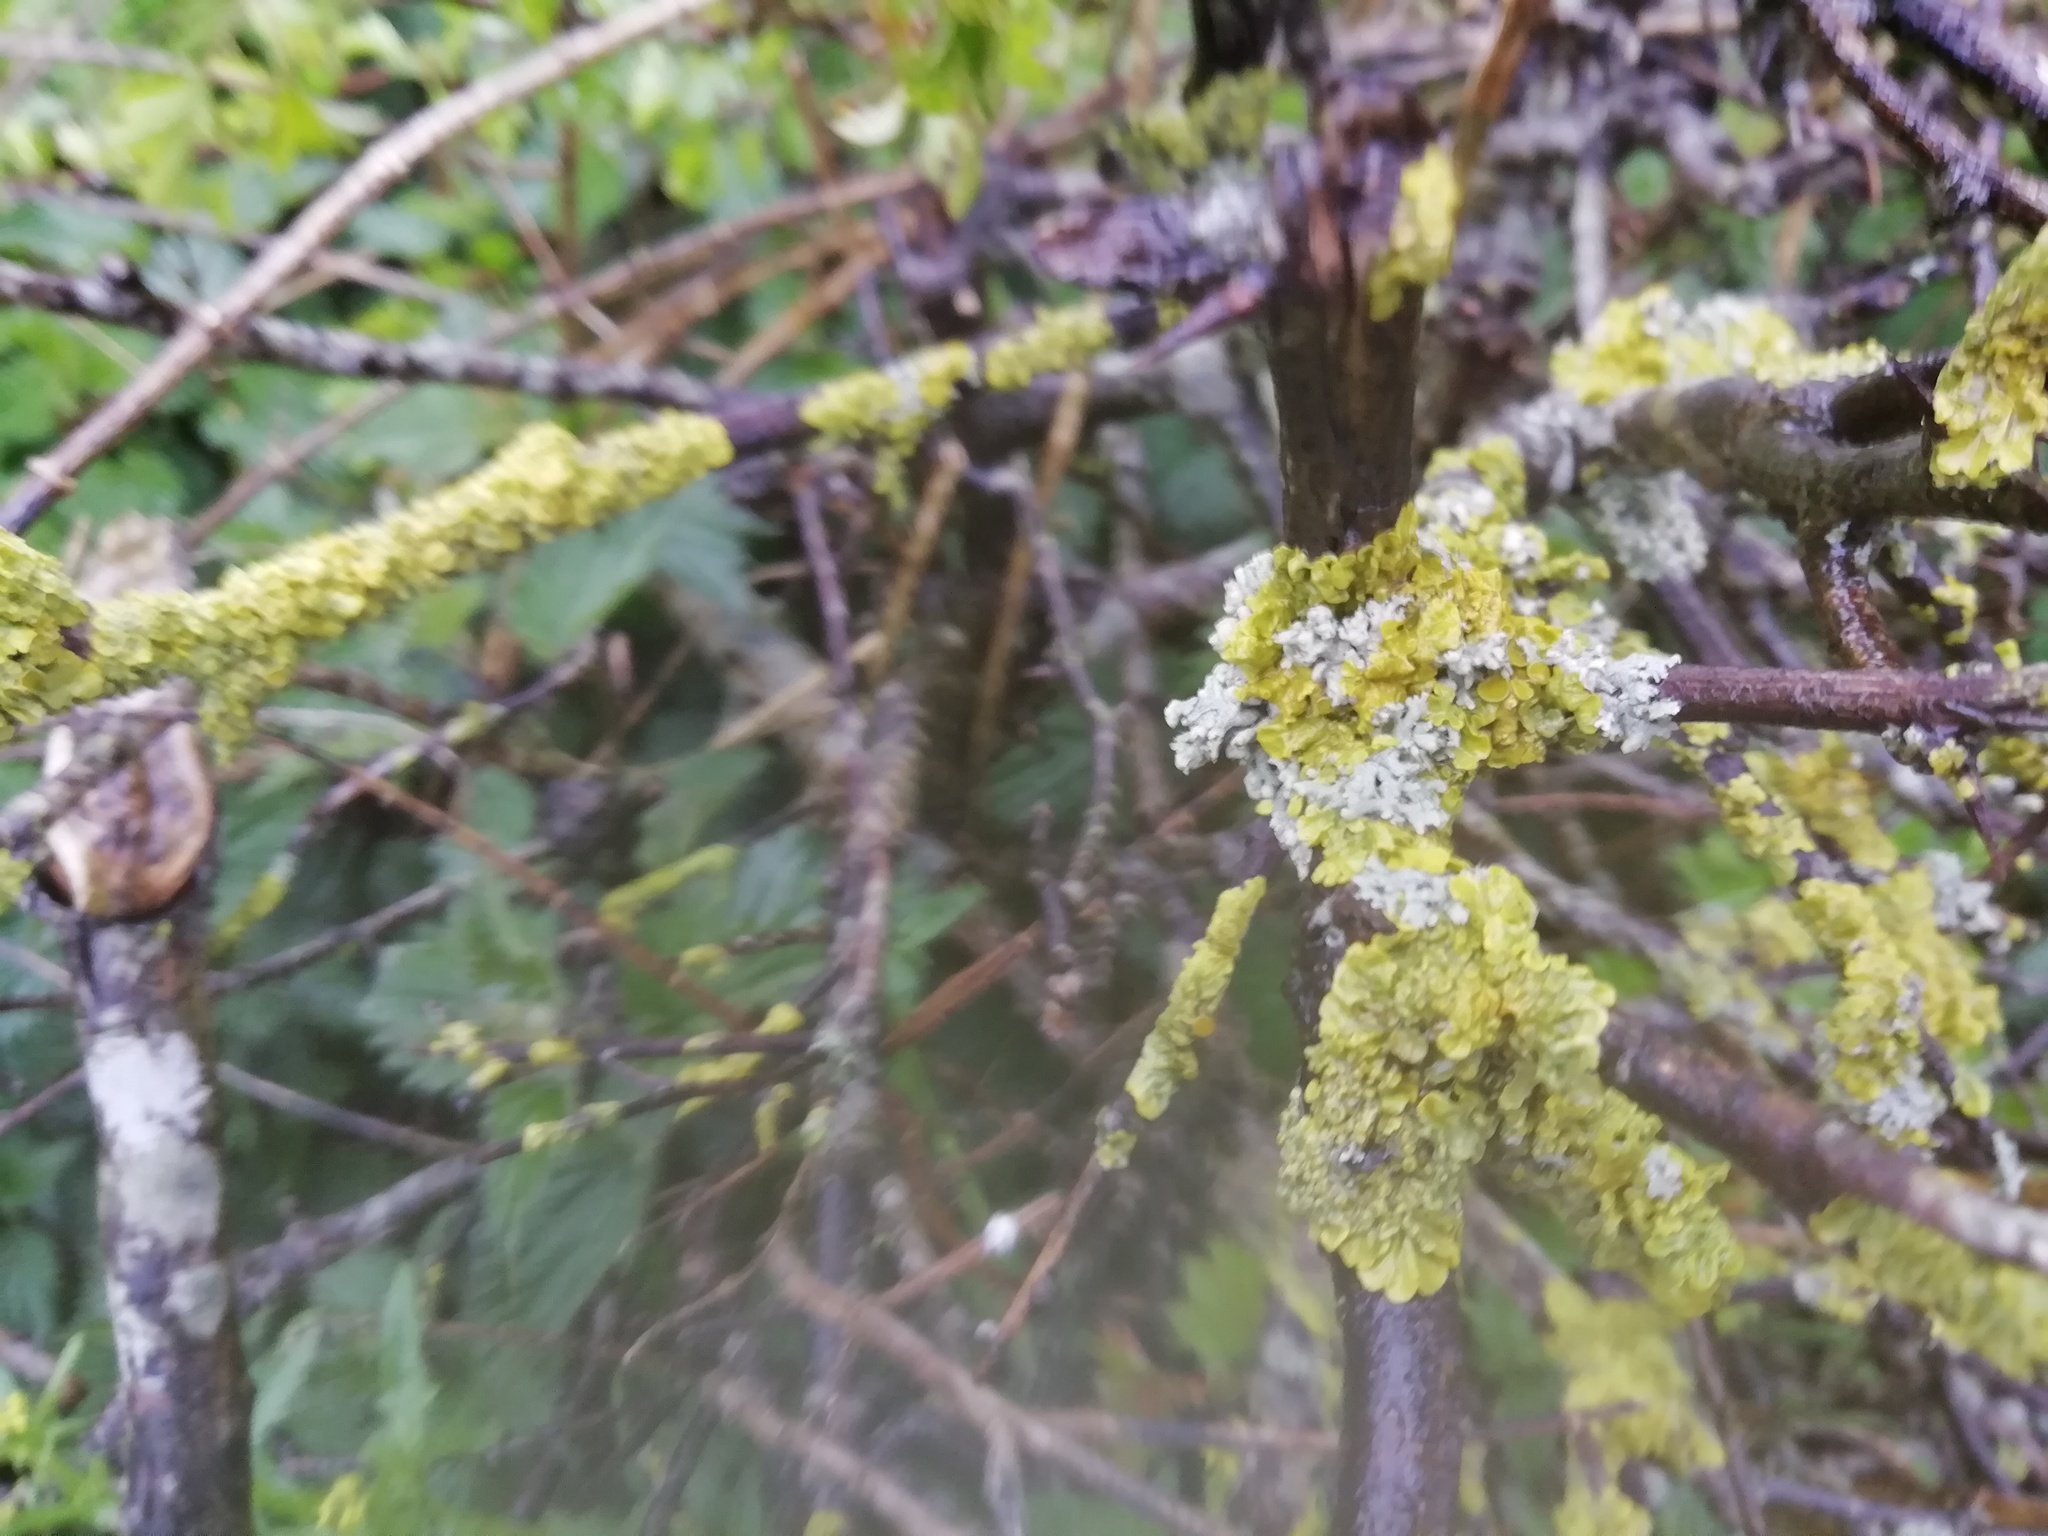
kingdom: Fungi
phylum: Ascomycota
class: Lecanoromycetes
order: Teloschistales
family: Teloschistaceae
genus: Xanthoria
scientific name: Xanthoria parietina
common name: Common orange lichen
